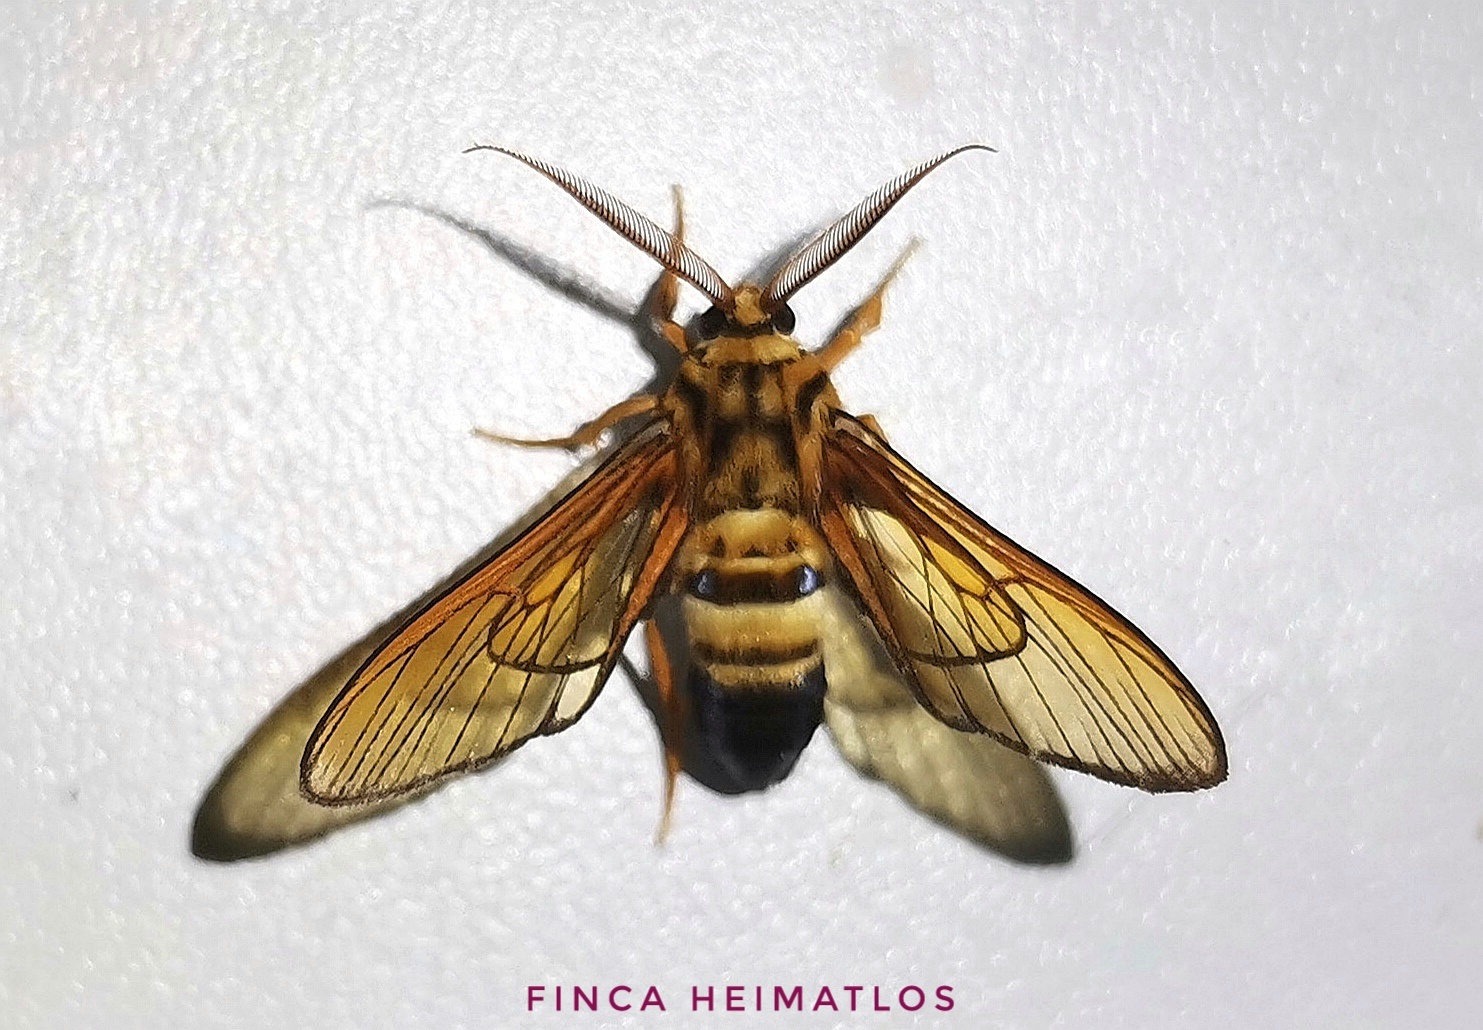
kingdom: Animalia
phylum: Arthropoda
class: Insecta
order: Lepidoptera
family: Erebidae
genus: Sarosa
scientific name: Sarosa acutior
